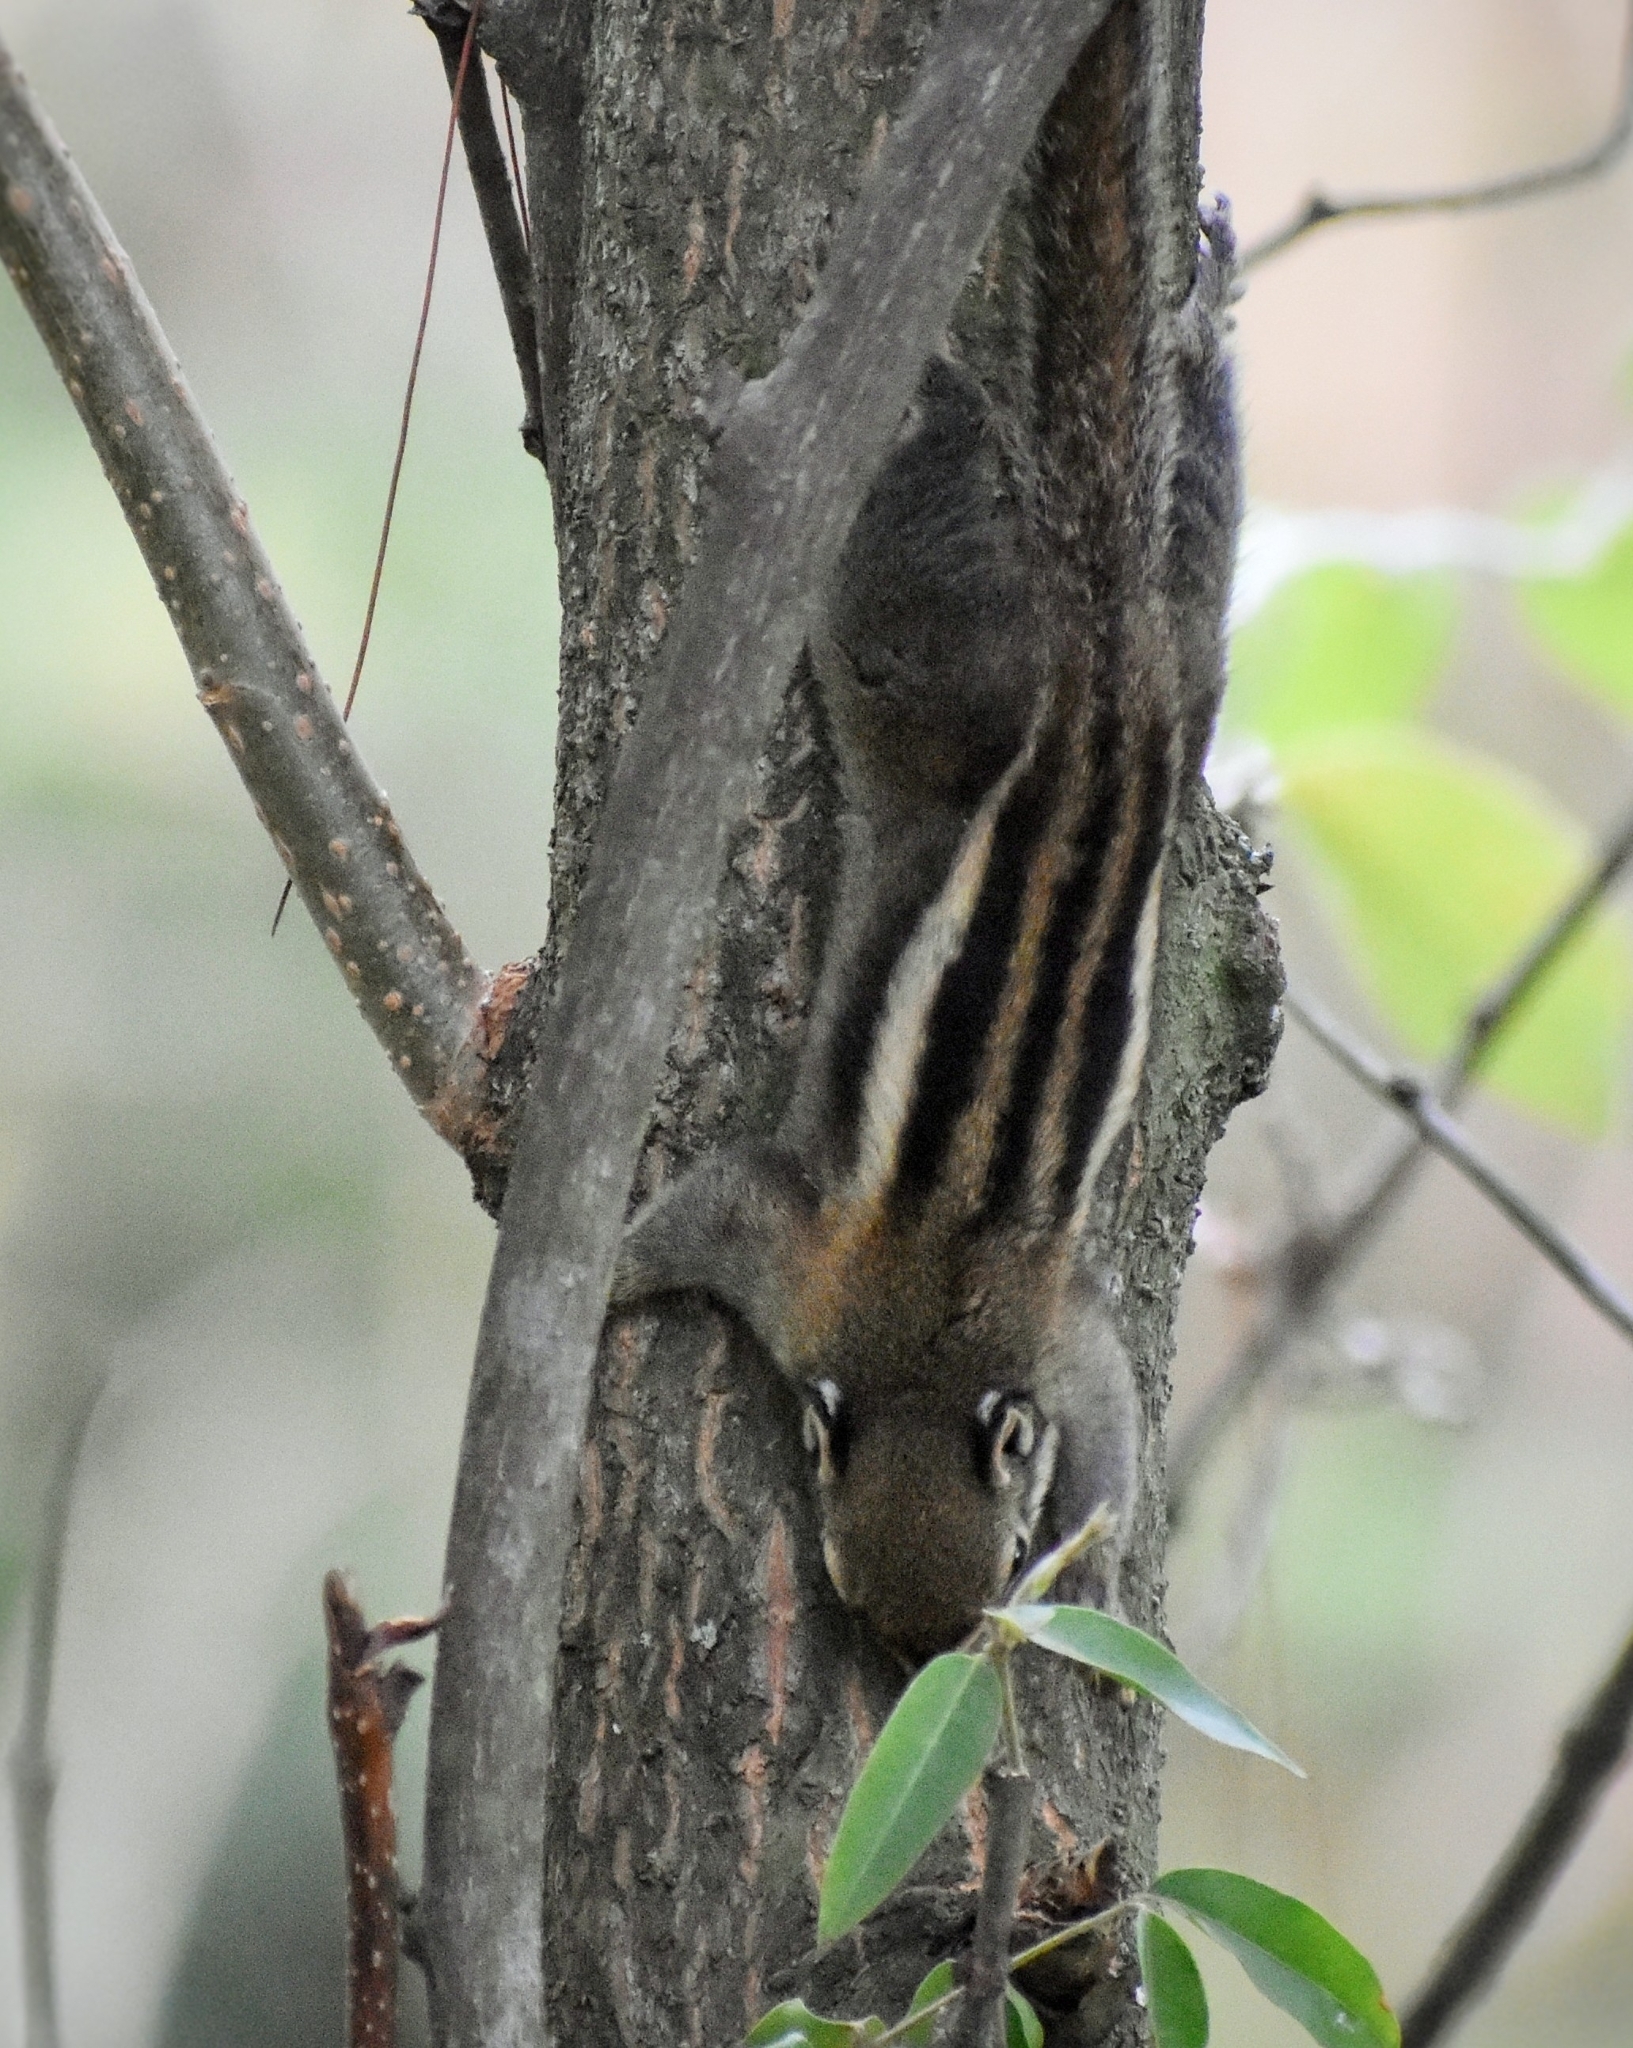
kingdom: Animalia
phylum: Chordata
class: Mammalia
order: Rodentia
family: Sciuridae
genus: Tamiops
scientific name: Tamiops maritimus
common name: Maritime striped squirrel
